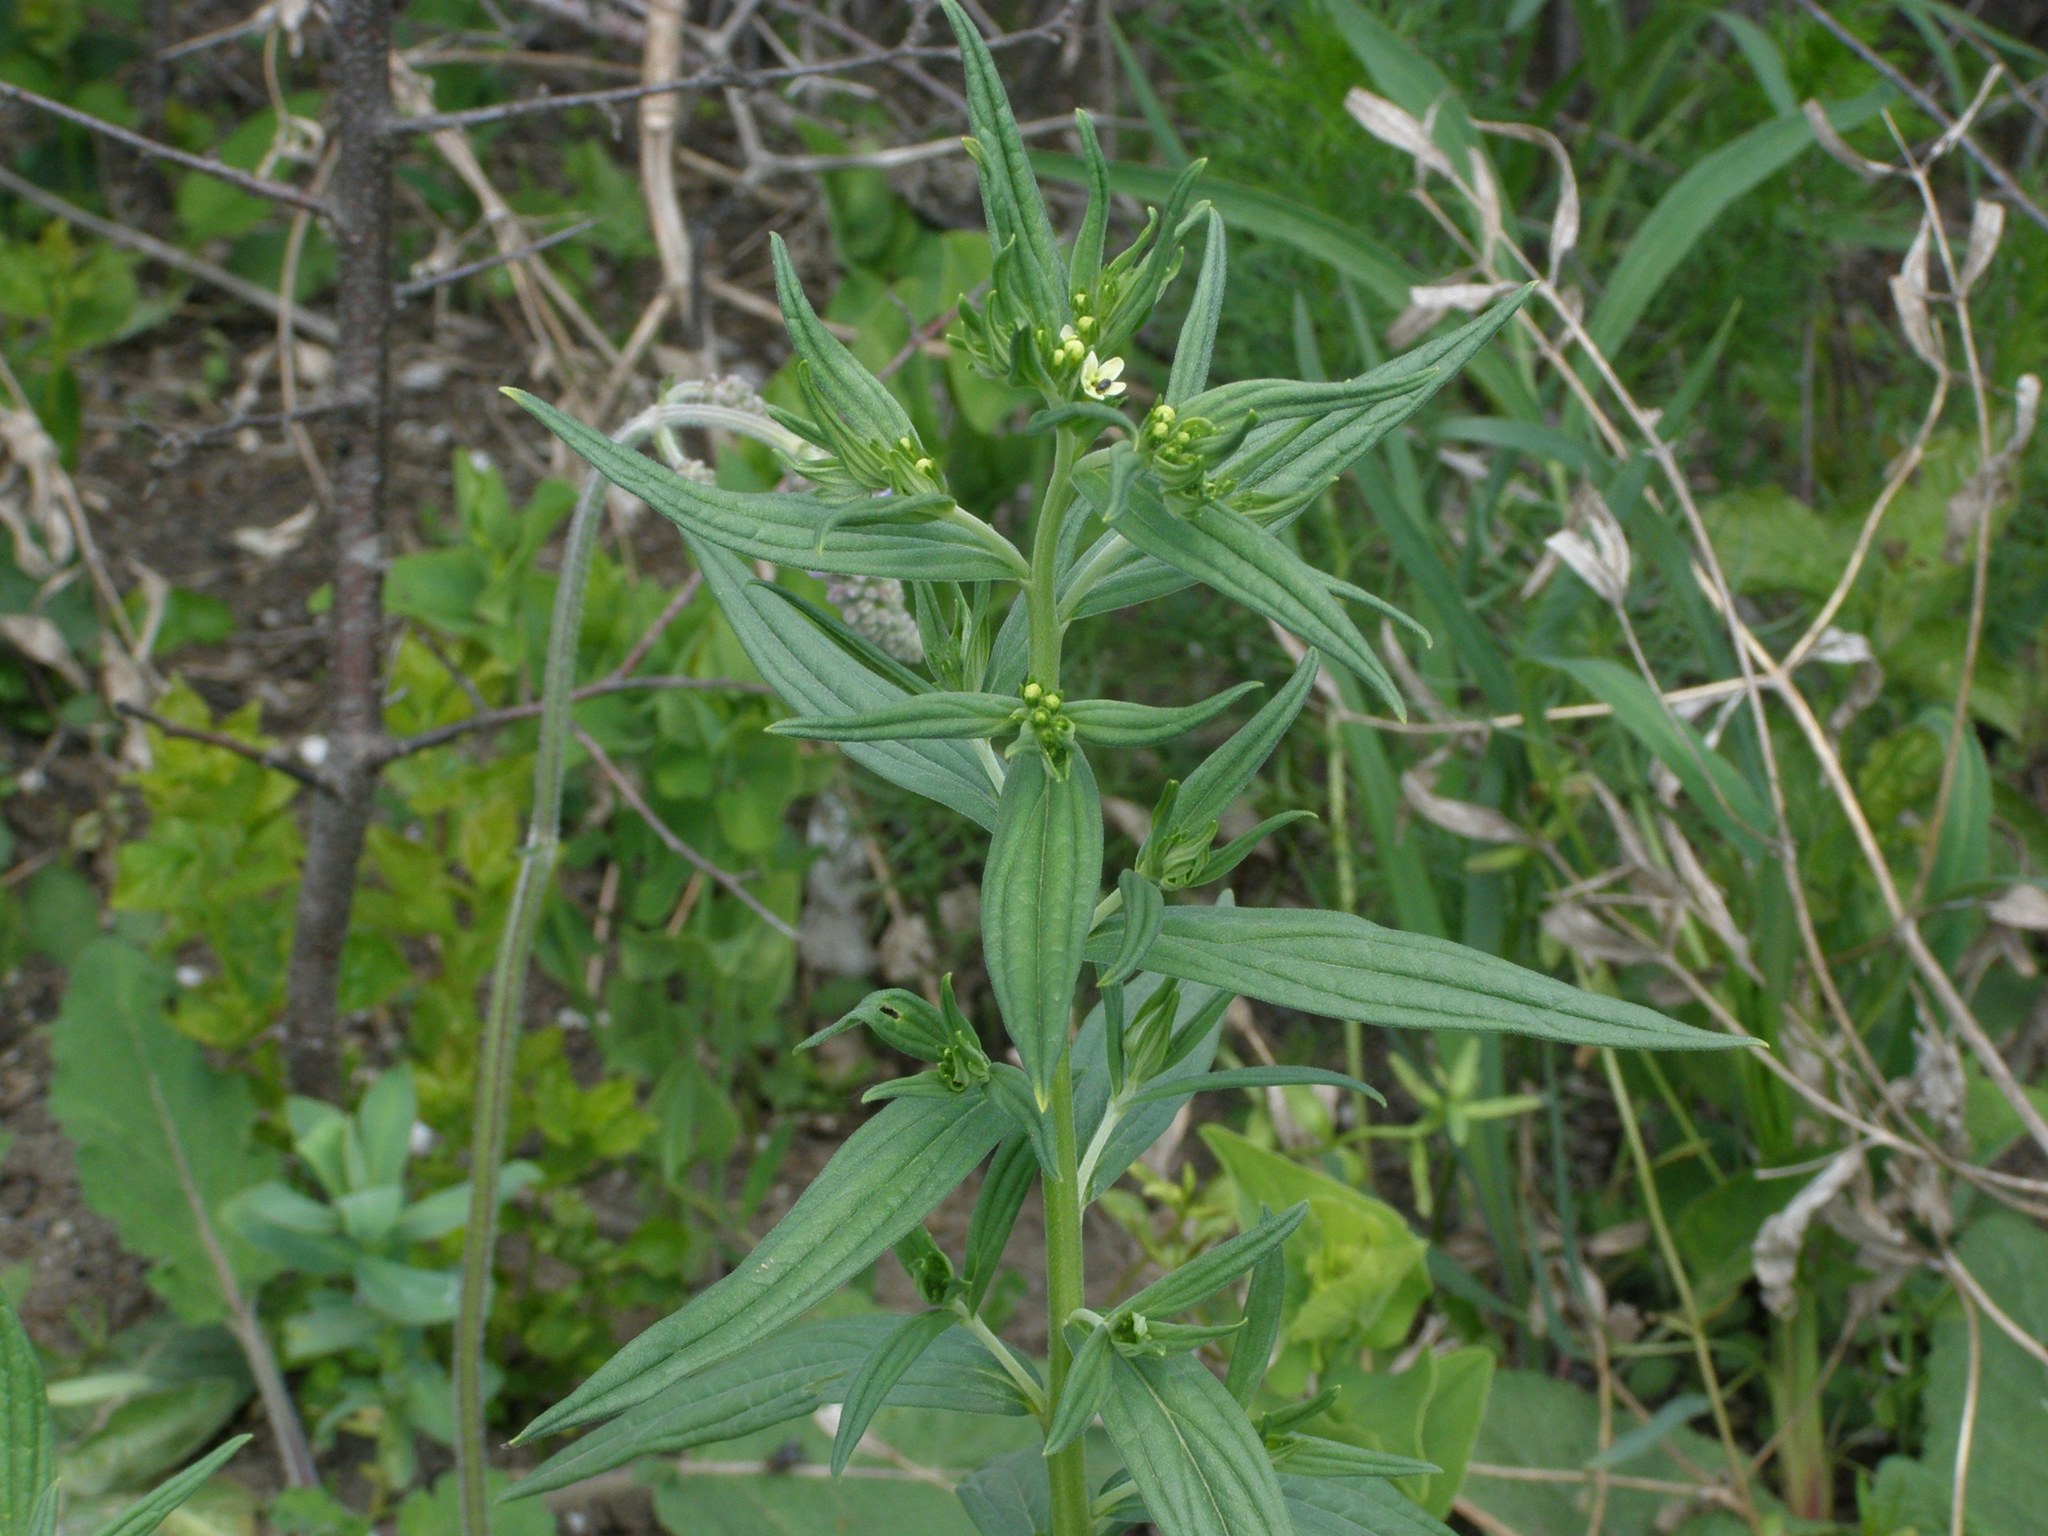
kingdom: Plantae
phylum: Tracheophyta
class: Magnoliopsida
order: Boraginales
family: Boraginaceae
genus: Lithospermum
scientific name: Lithospermum officinale
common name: Common gromwell
